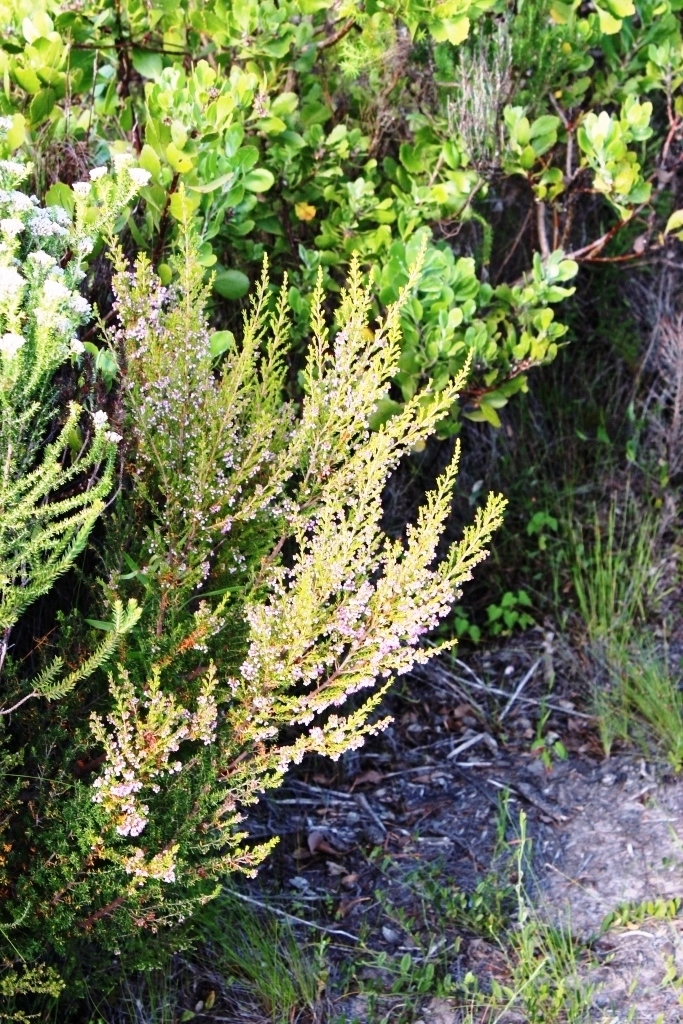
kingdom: Plantae
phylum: Tracheophyta
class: Magnoliopsida
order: Ericales
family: Ericaceae
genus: Erica
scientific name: Erica canaliculata
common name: Hairy grey heather
